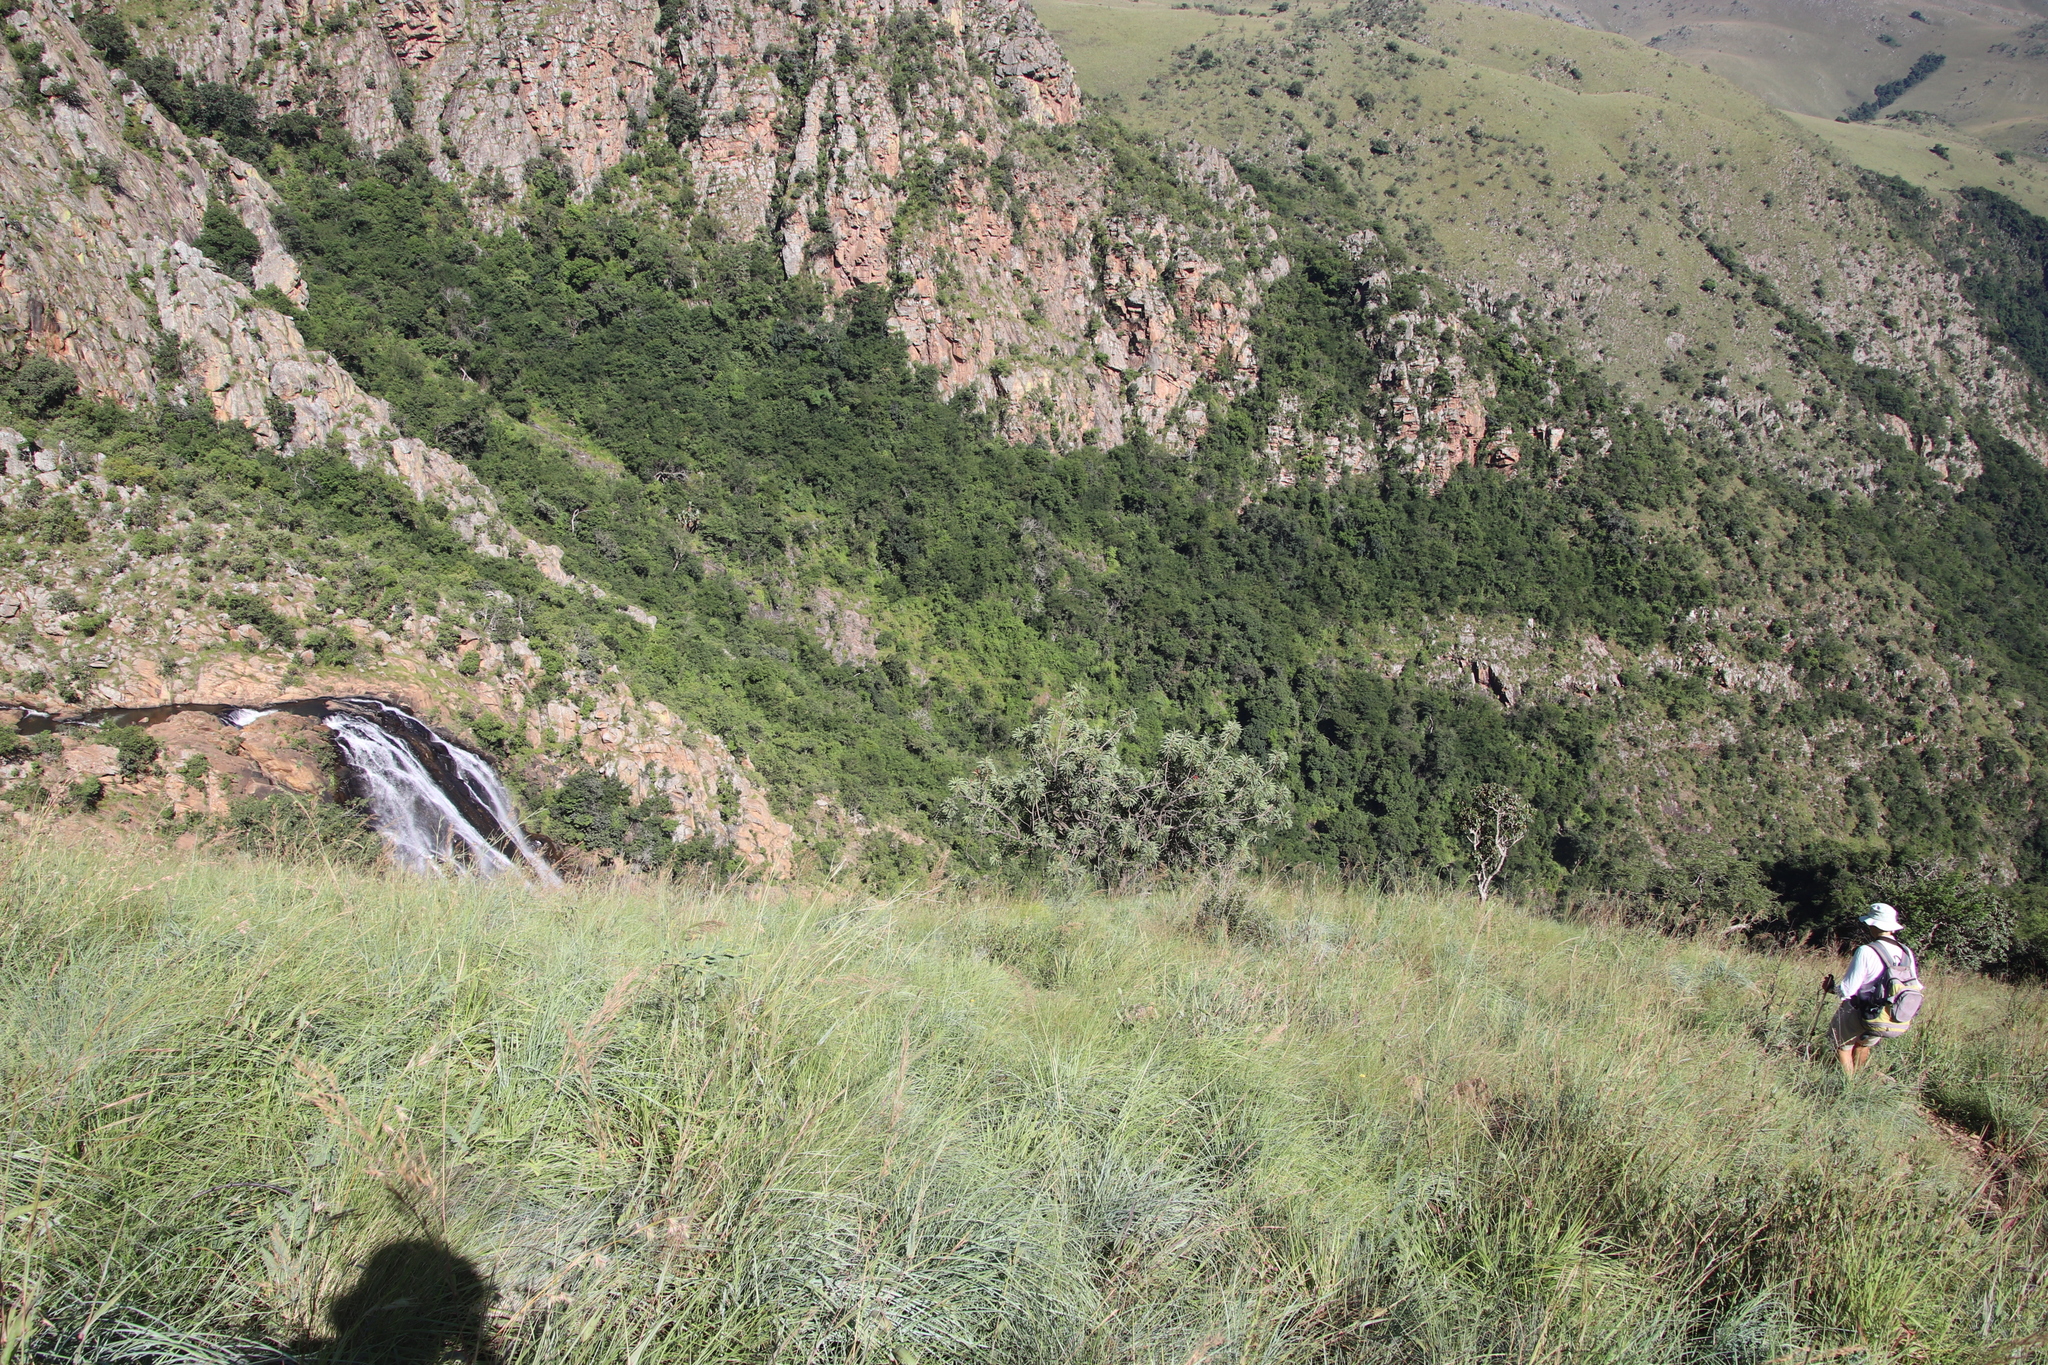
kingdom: Plantae
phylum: Tracheophyta
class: Magnoliopsida
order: Proteales
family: Proteaceae
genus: Protea
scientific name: Protea caffra
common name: Common sugarbush
